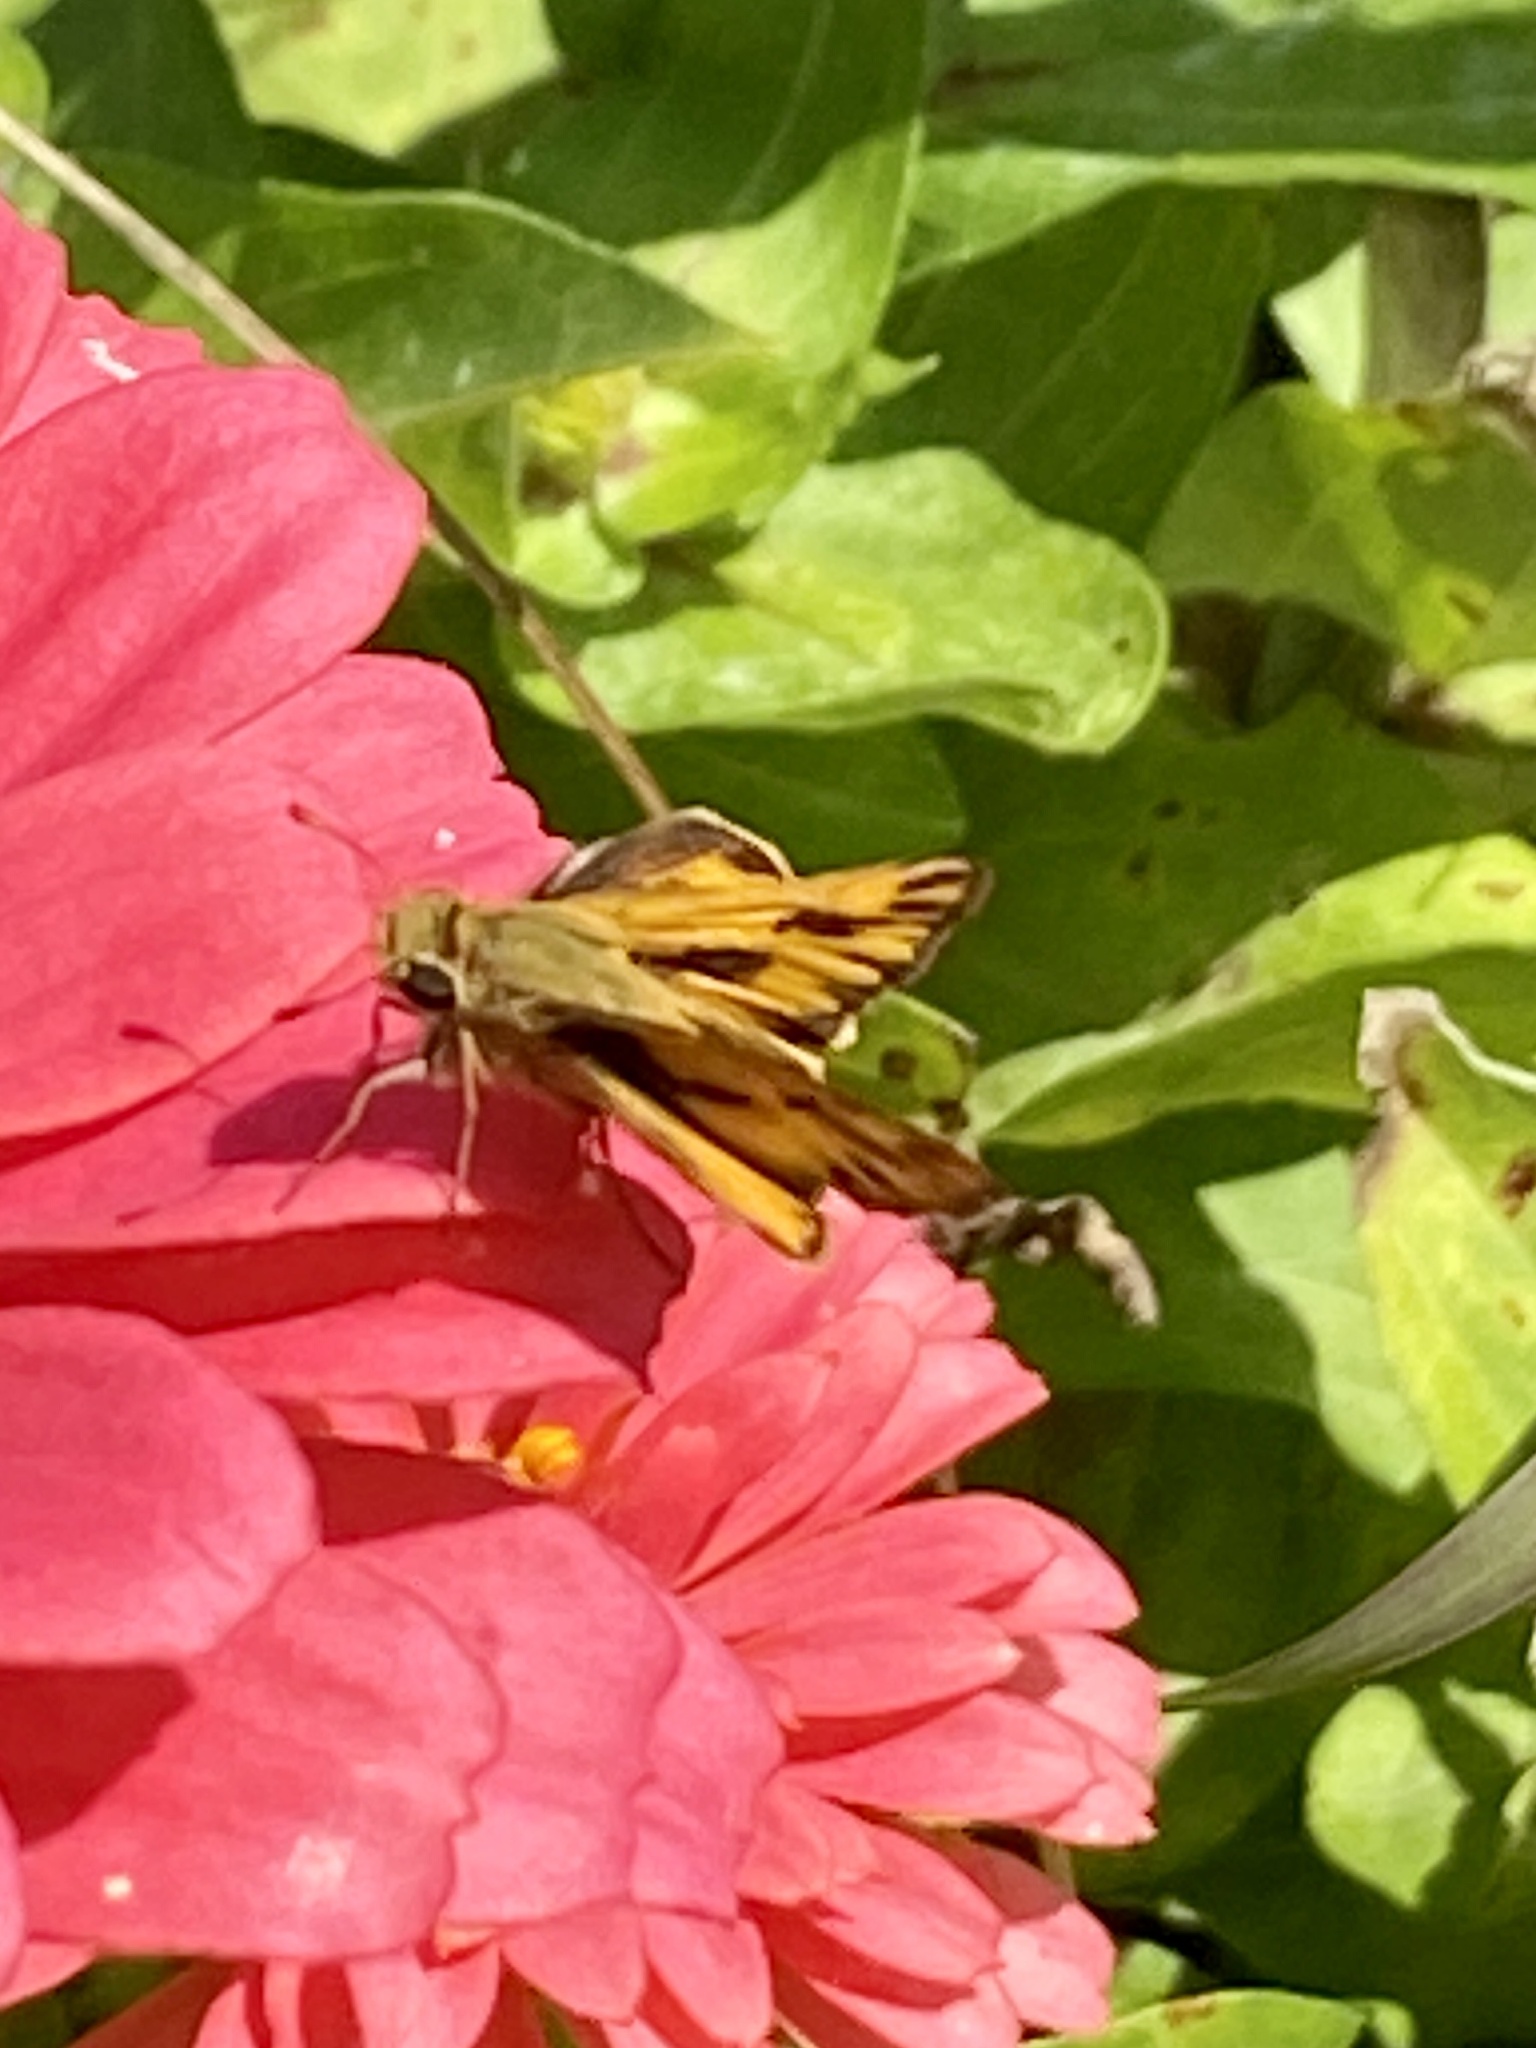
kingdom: Animalia
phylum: Arthropoda
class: Insecta
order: Lepidoptera
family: Hesperiidae
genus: Hylephila
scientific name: Hylephila phyleus
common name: Fiery skipper
